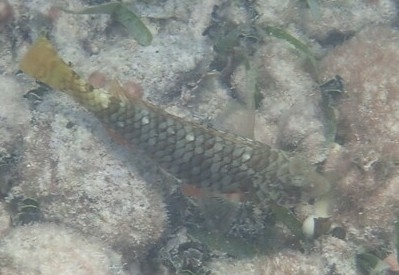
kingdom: Animalia
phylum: Chordata
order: Perciformes
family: Scaridae
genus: Sparisoma
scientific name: Sparisoma rubripinne
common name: Redfin parrotfish
